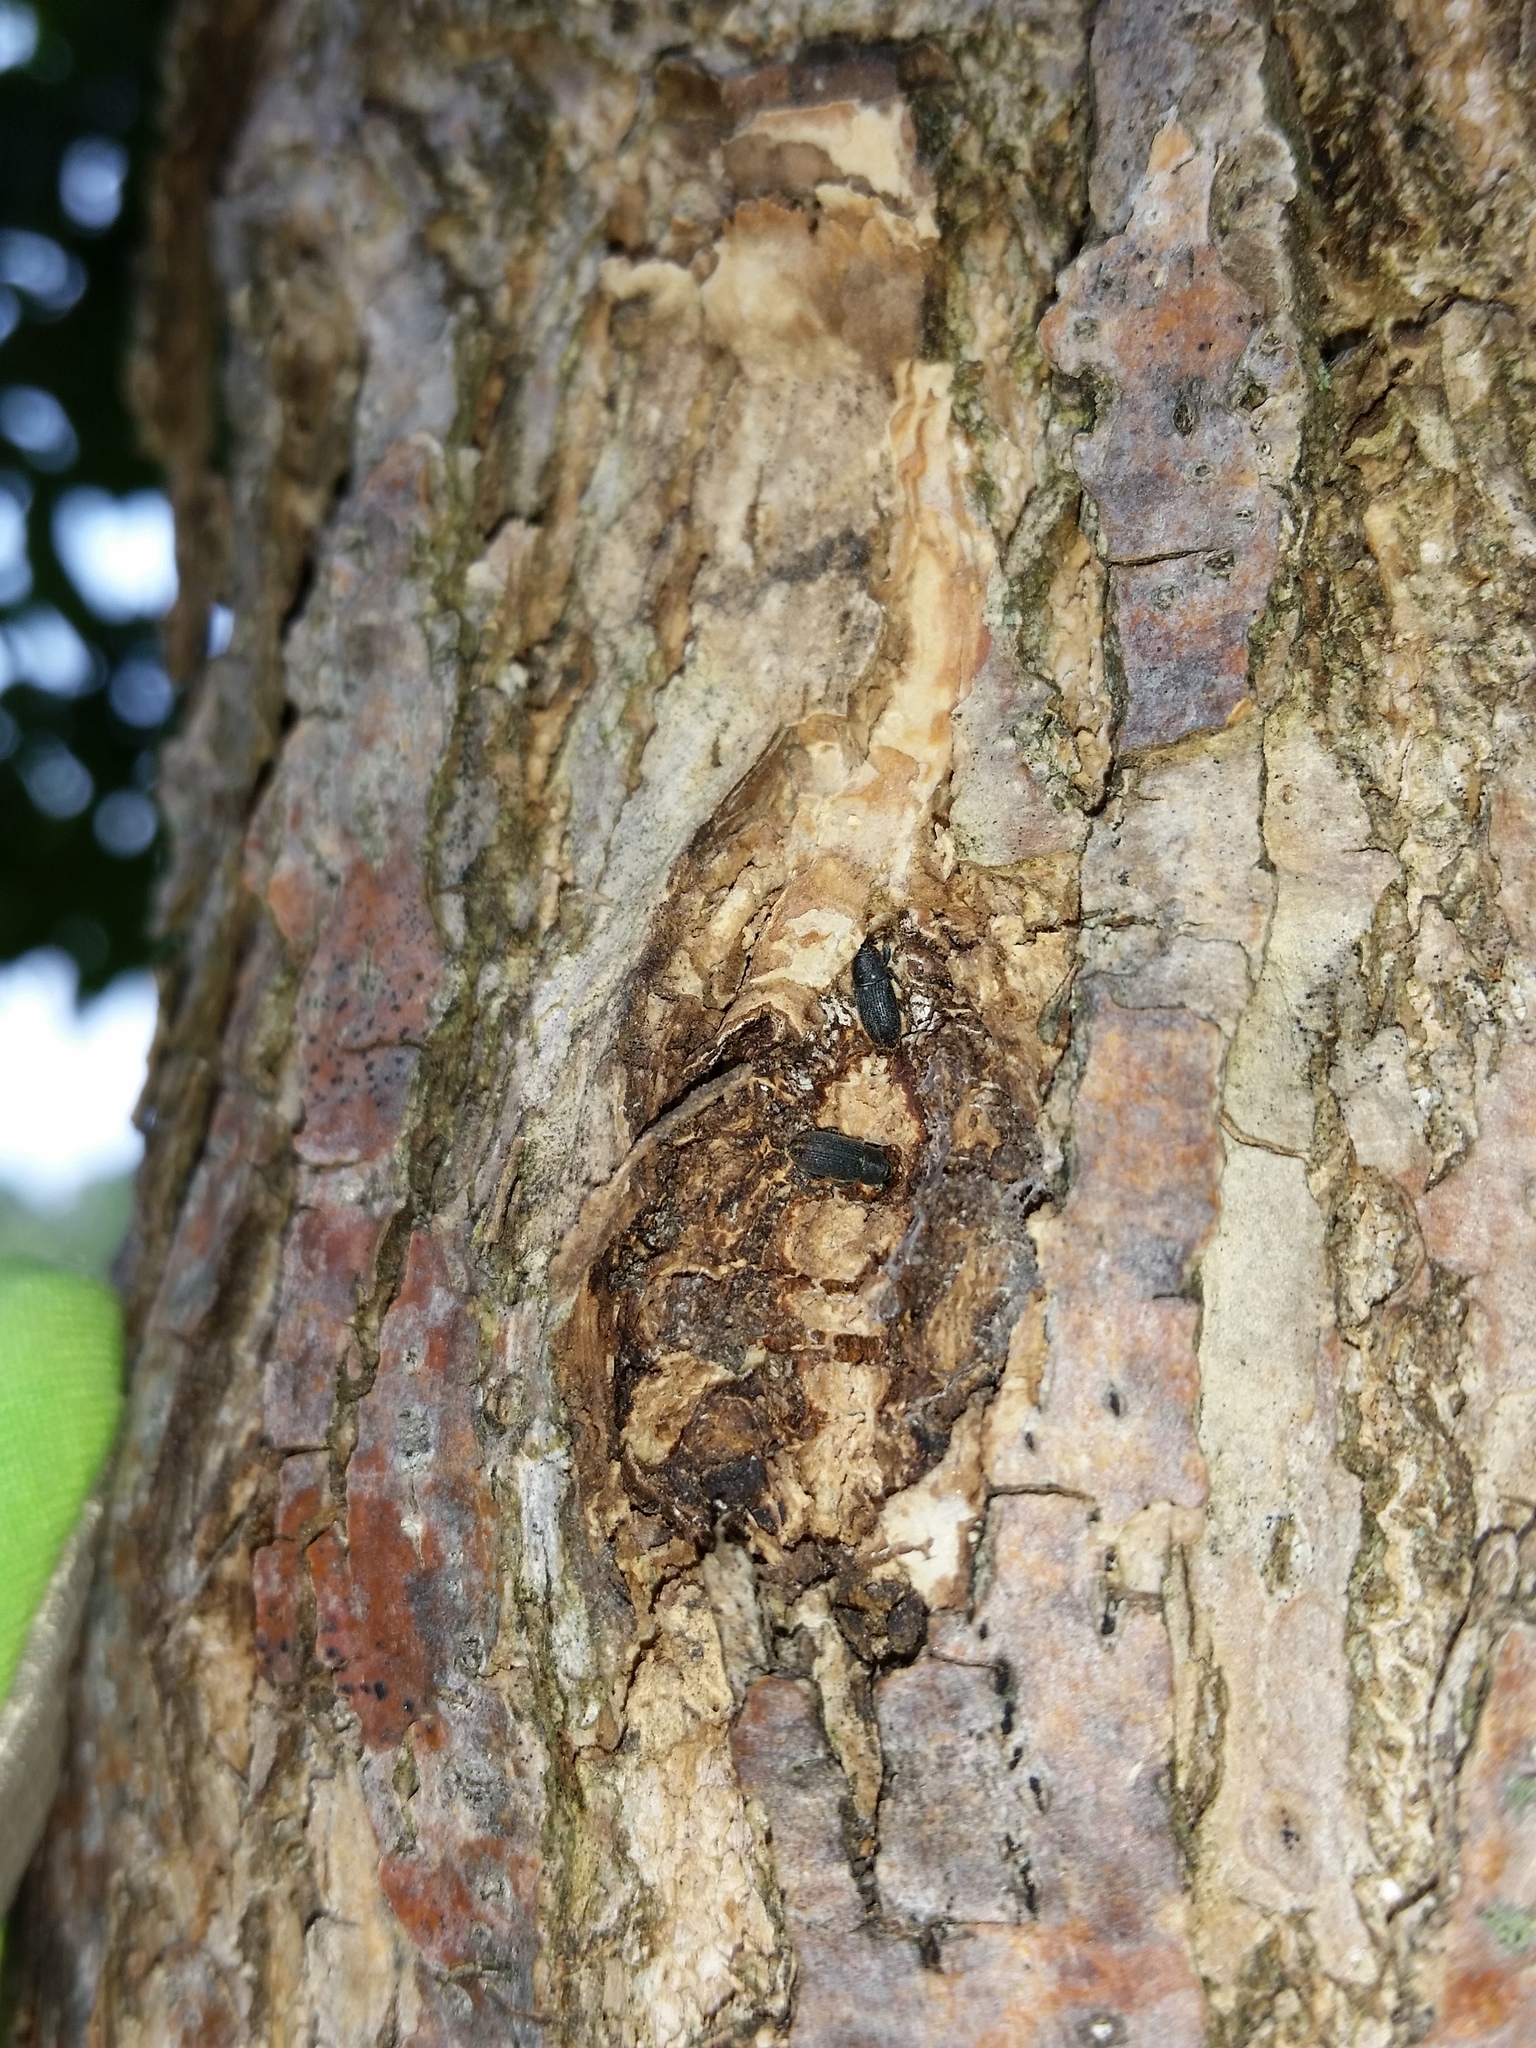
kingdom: Animalia
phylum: Arthropoda
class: Insecta
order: Coleoptera
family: Curculionidae
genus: Mecinus
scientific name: Mecinus pyraster
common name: Weevil
